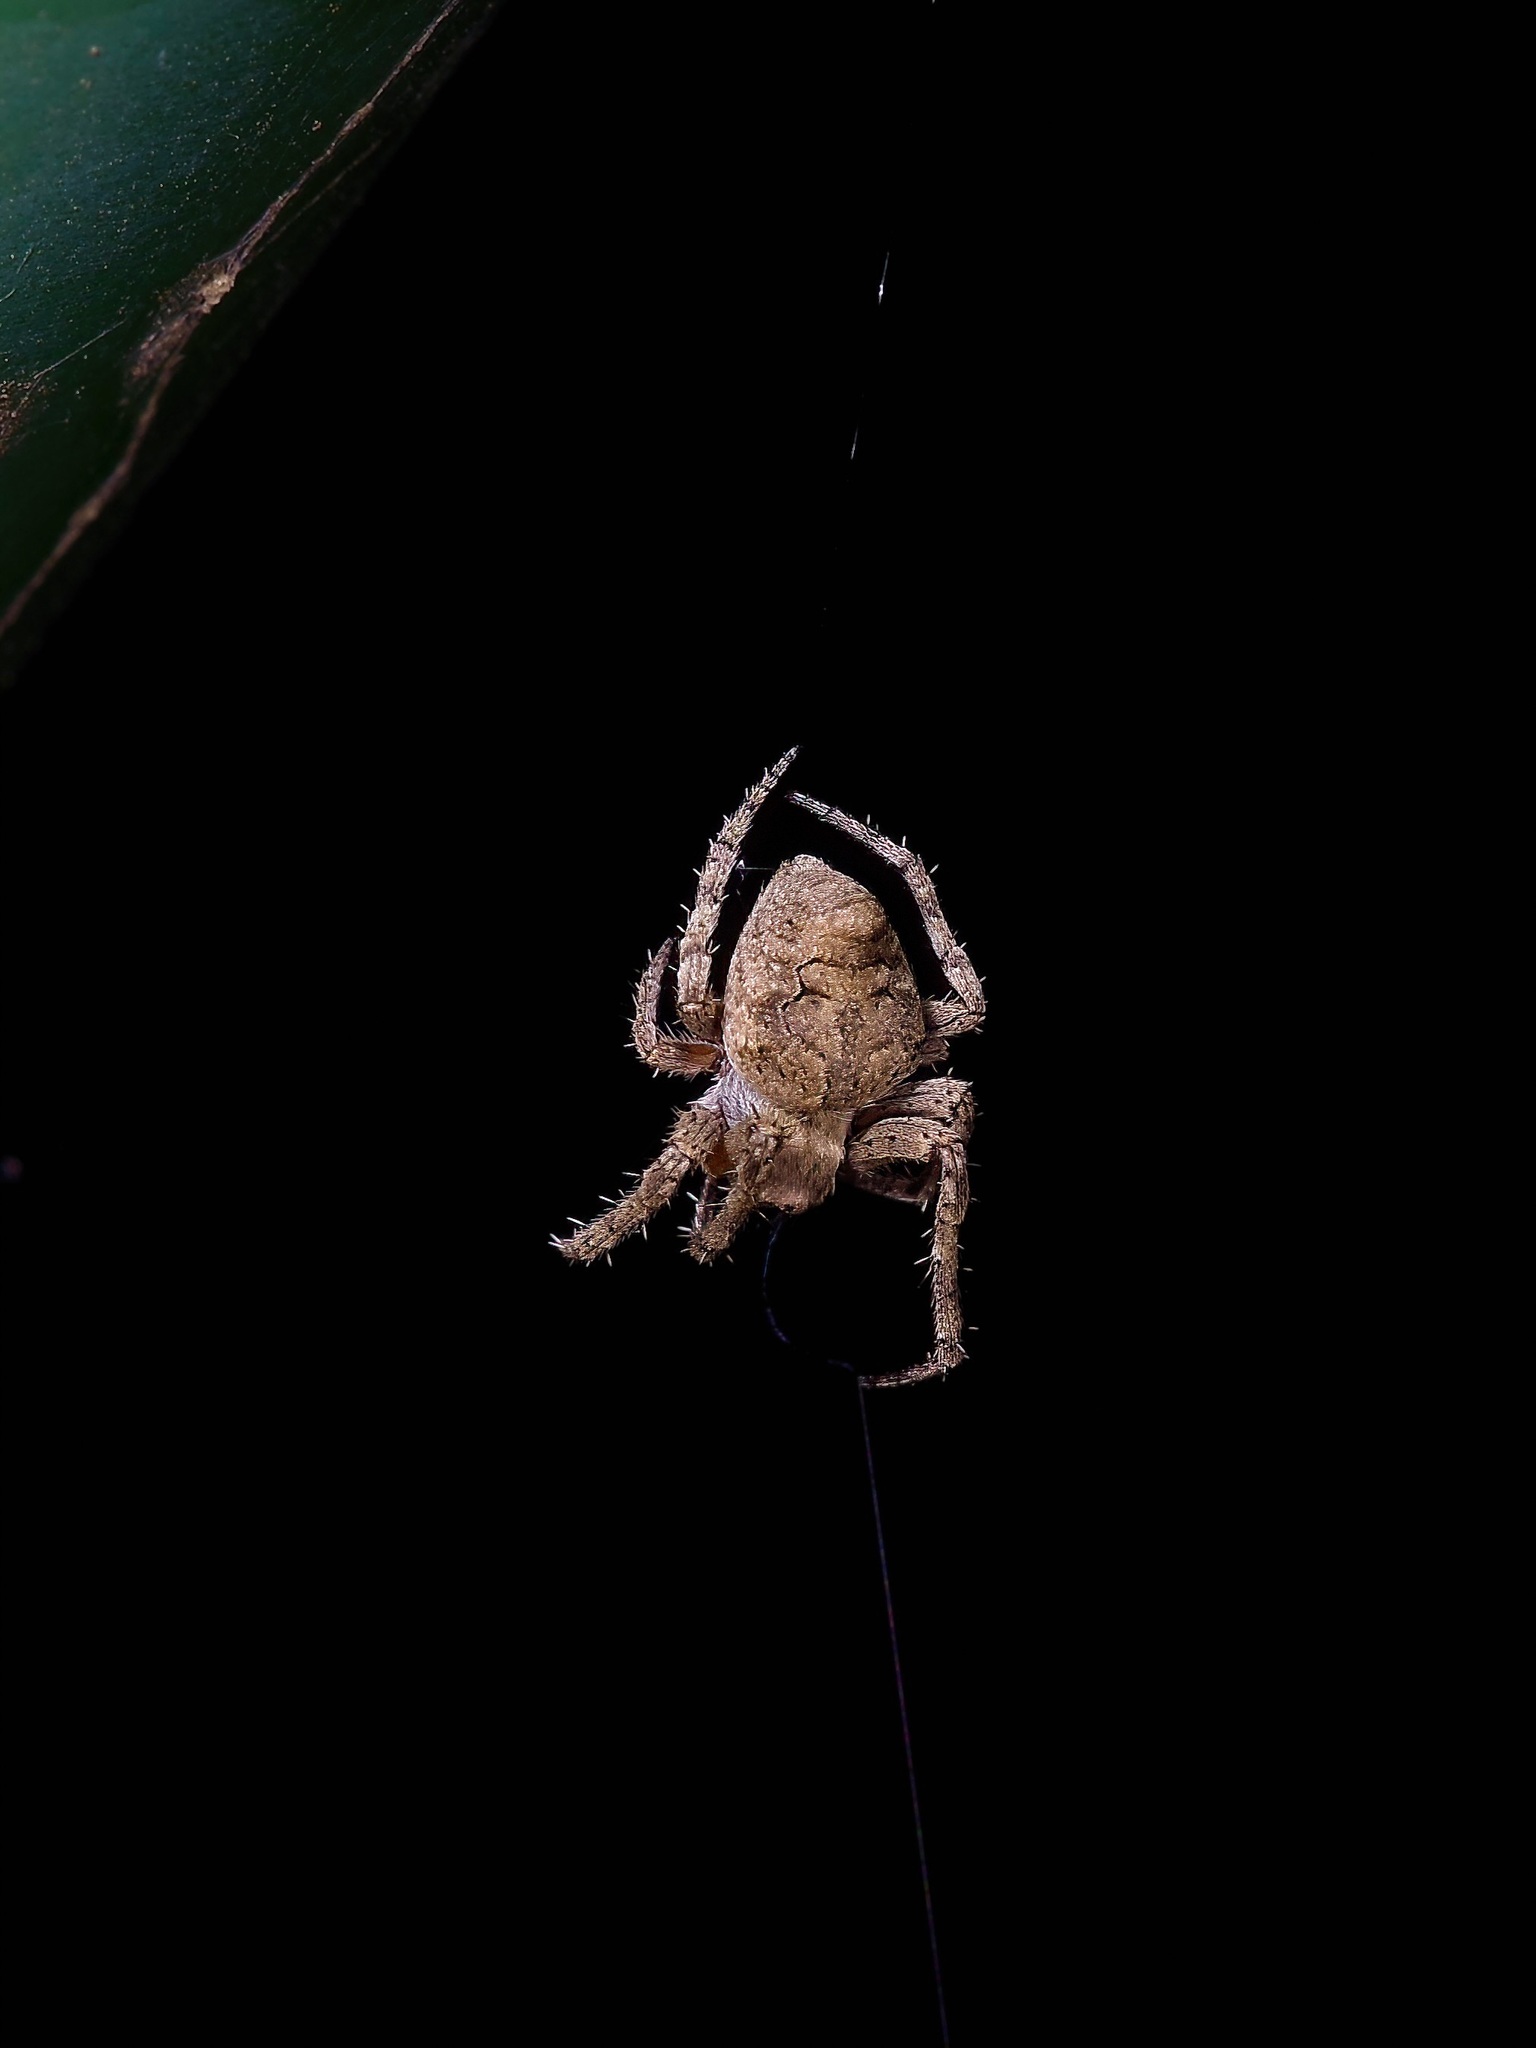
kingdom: Animalia
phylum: Arthropoda
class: Arachnida
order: Araneae
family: Araneidae
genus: Eustala
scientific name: Eustala anastera
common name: Orb weavers
